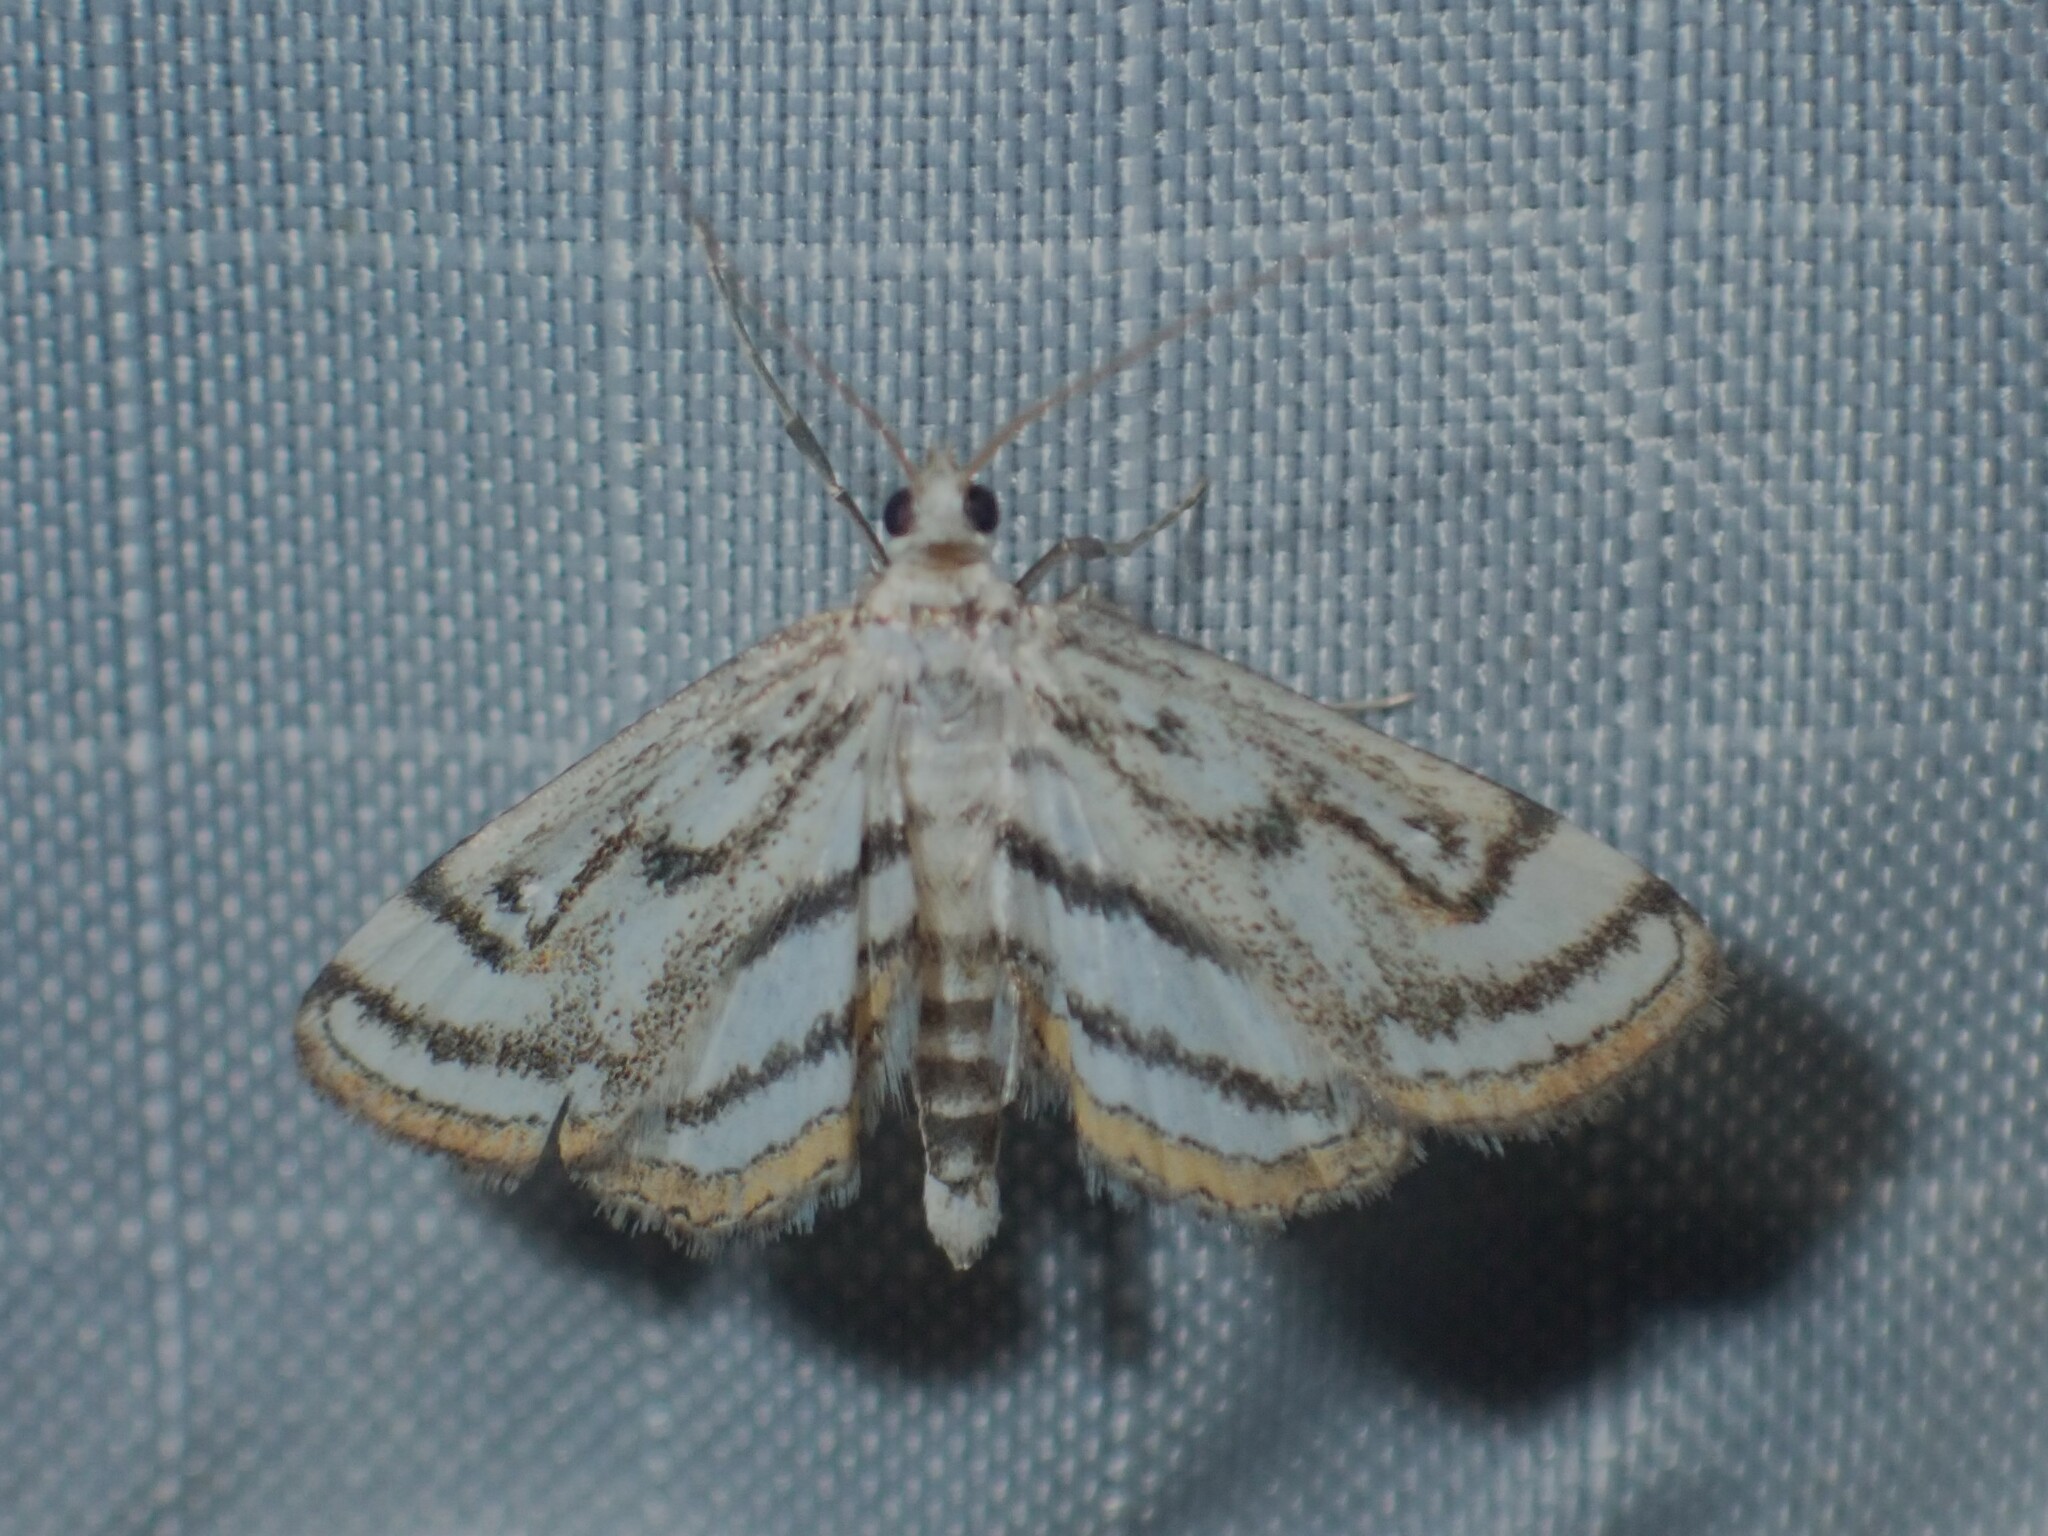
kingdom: Animalia
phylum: Arthropoda
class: Insecta
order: Lepidoptera
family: Crambidae
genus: Parapoynx
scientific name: Parapoynx badiusalis
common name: Chestnut-marked pondweed moth
